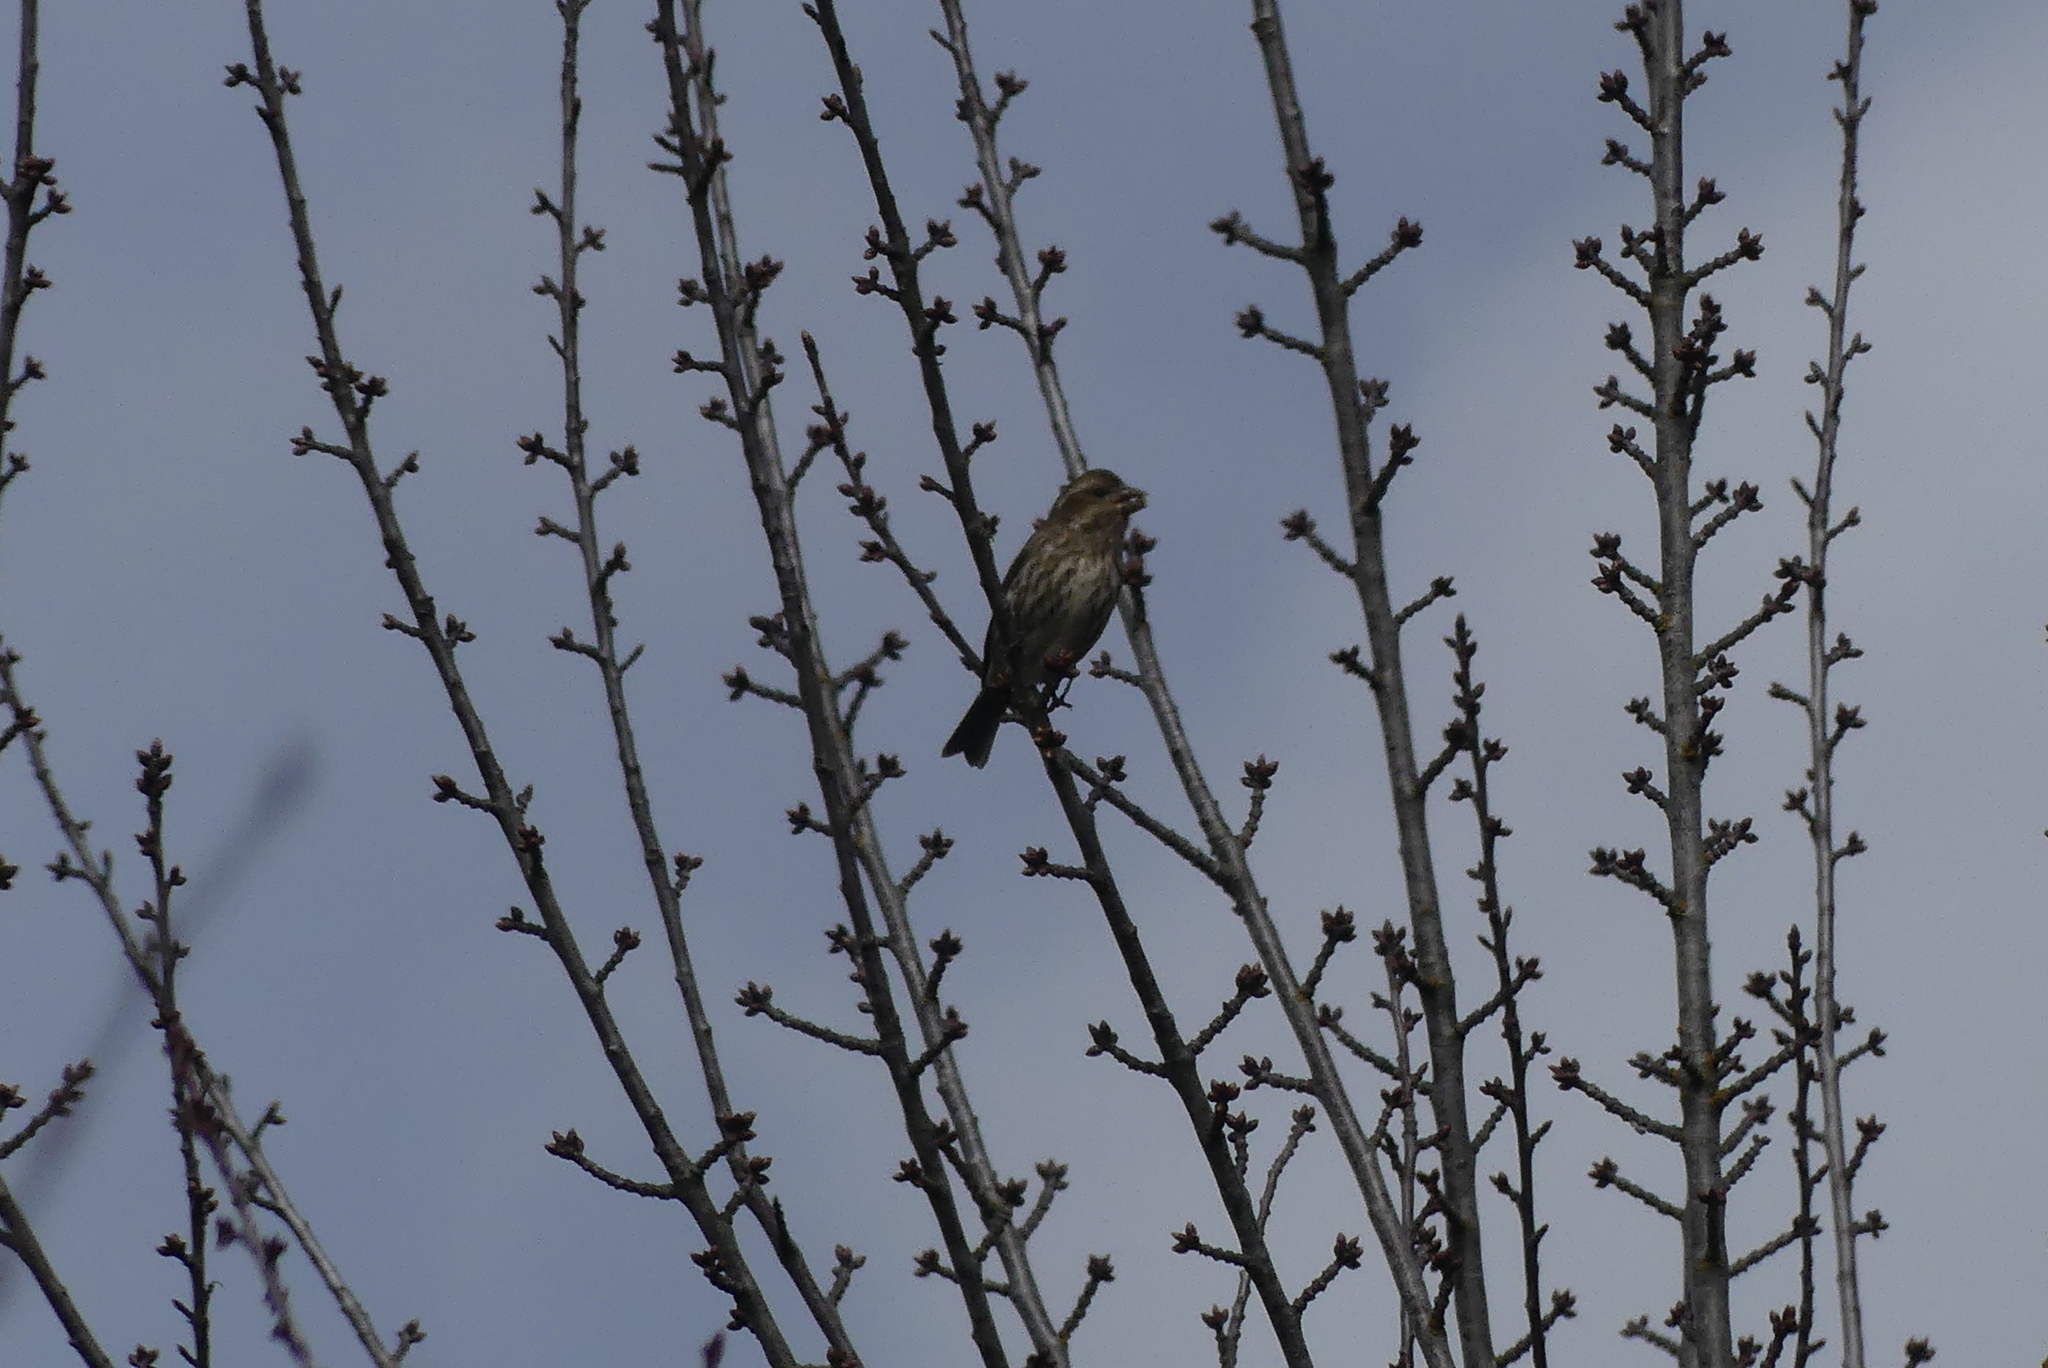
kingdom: Animalia
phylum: Chordata
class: Aves
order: Passeriformes
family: Fringillidae
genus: Haemorhous
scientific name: Haemorhous purpureus
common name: Purple finch
